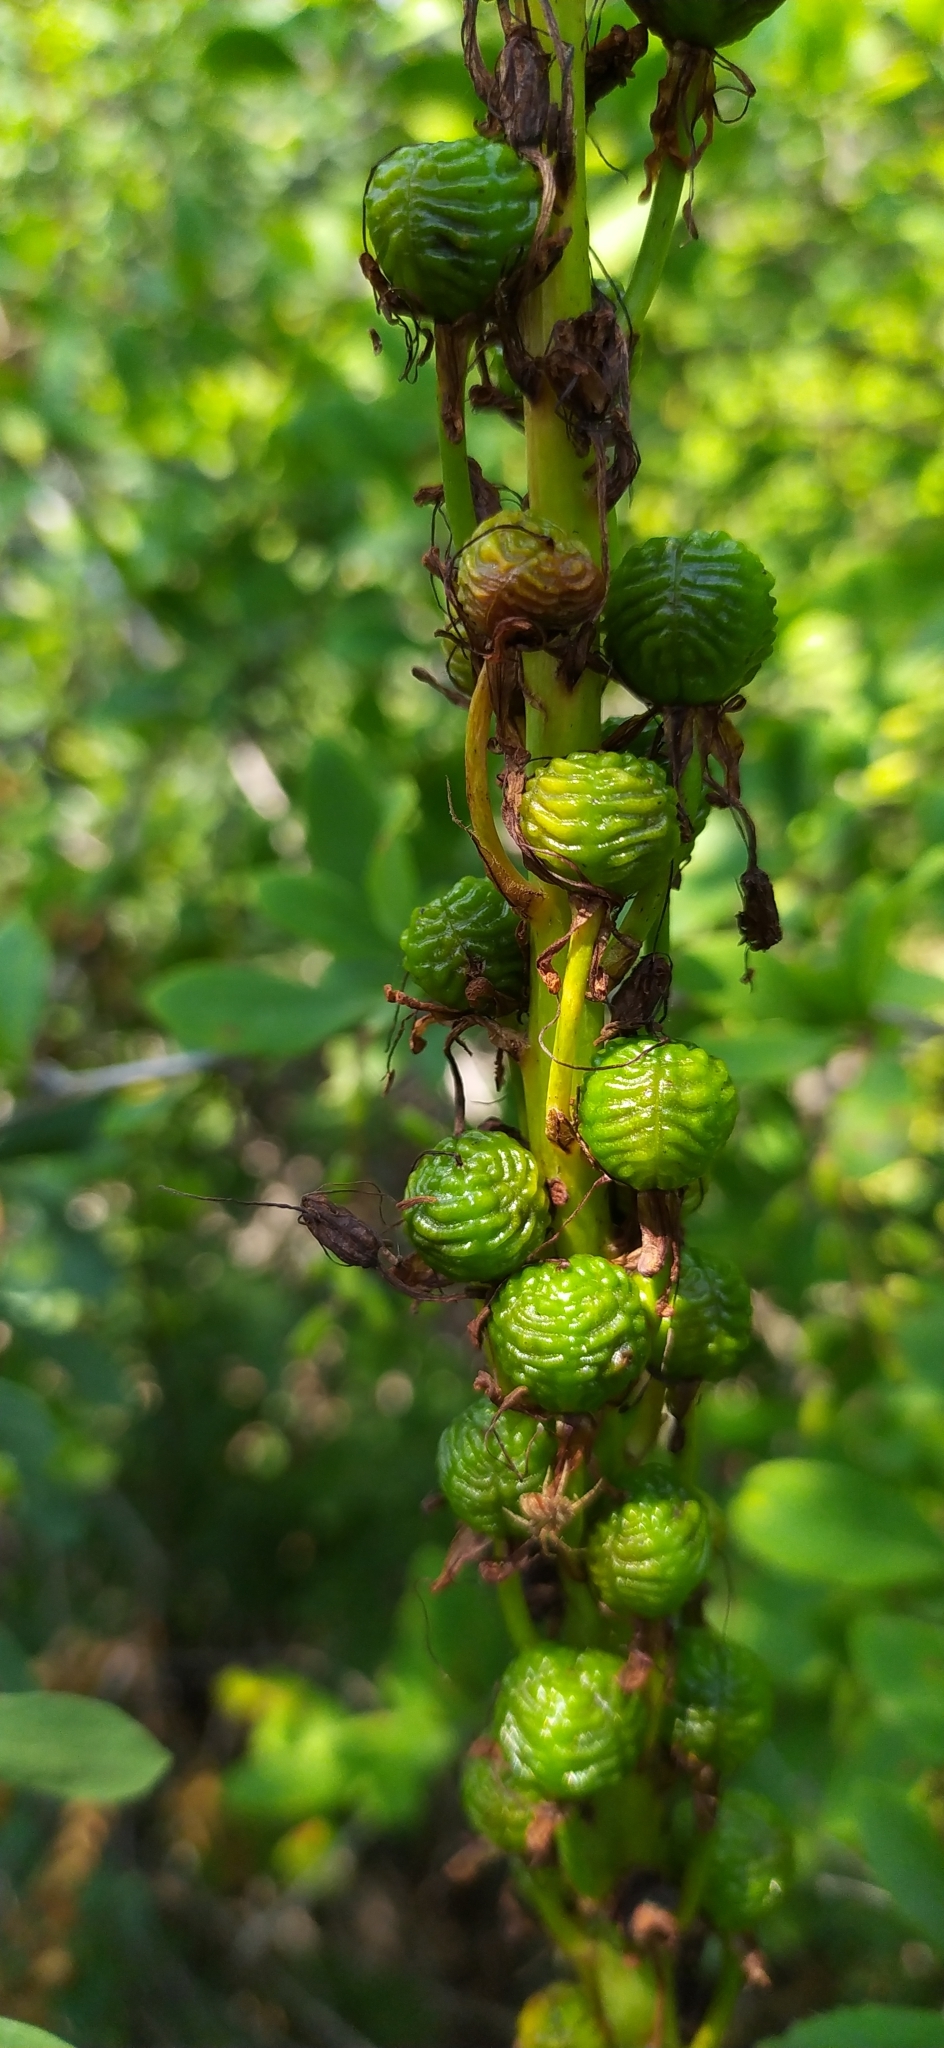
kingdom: Plantae
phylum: Tracheophyta
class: Liliopsida
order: Asparagales
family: Asphodelaceae
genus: Eremurus
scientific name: Eremurus spectabilis
